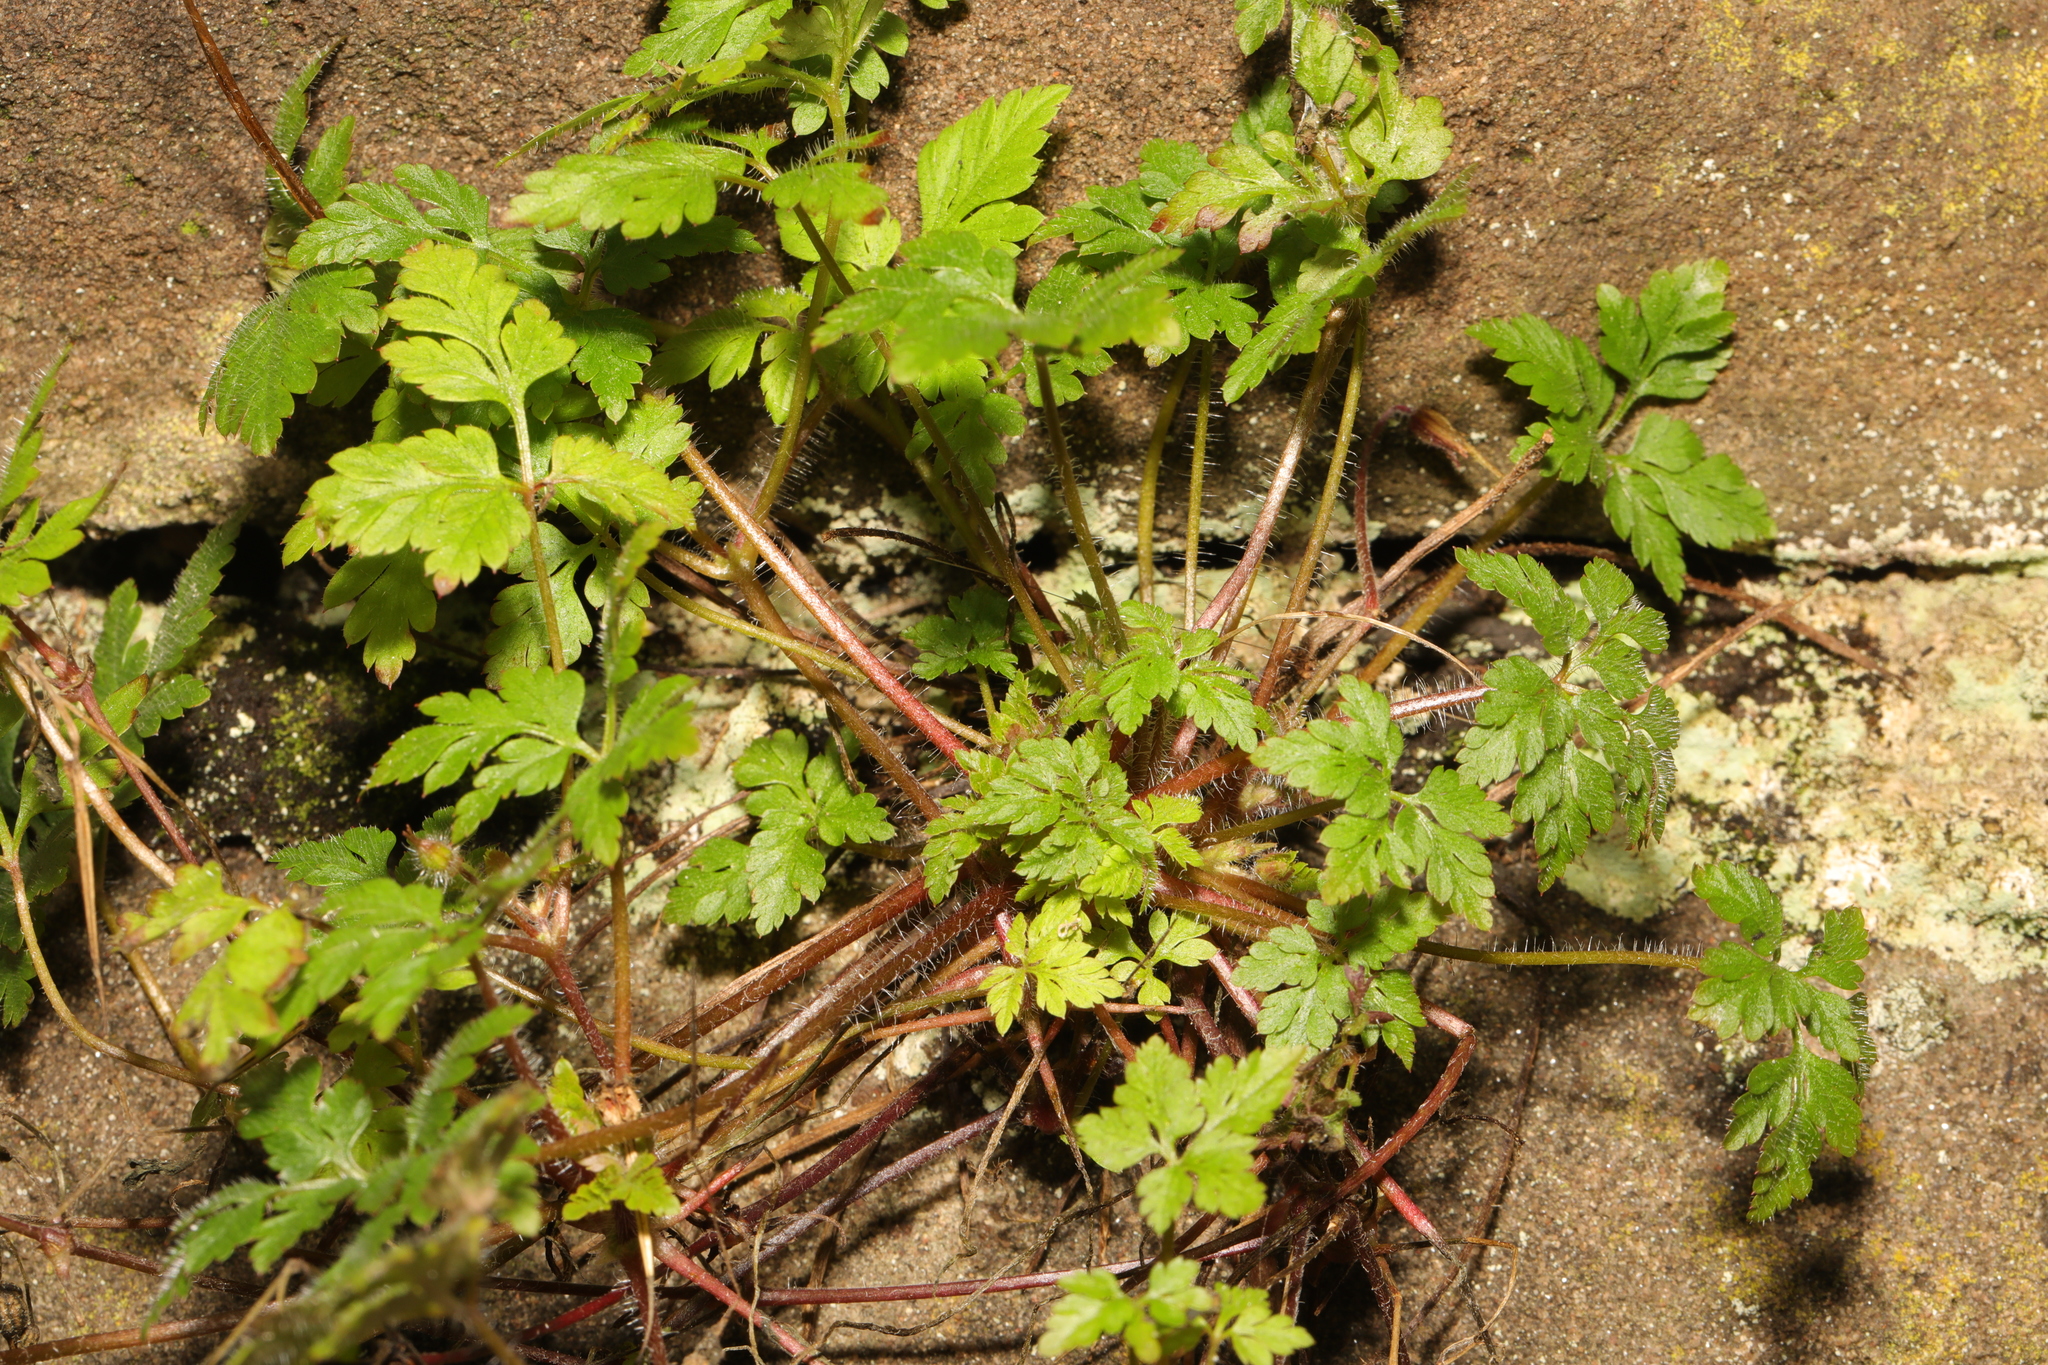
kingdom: Plantae
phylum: Tracheophyta
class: Magnoliopsida
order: Geraniales
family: Geraniaceae
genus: Geranium
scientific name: Geranium robertianum
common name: Herb-robert
